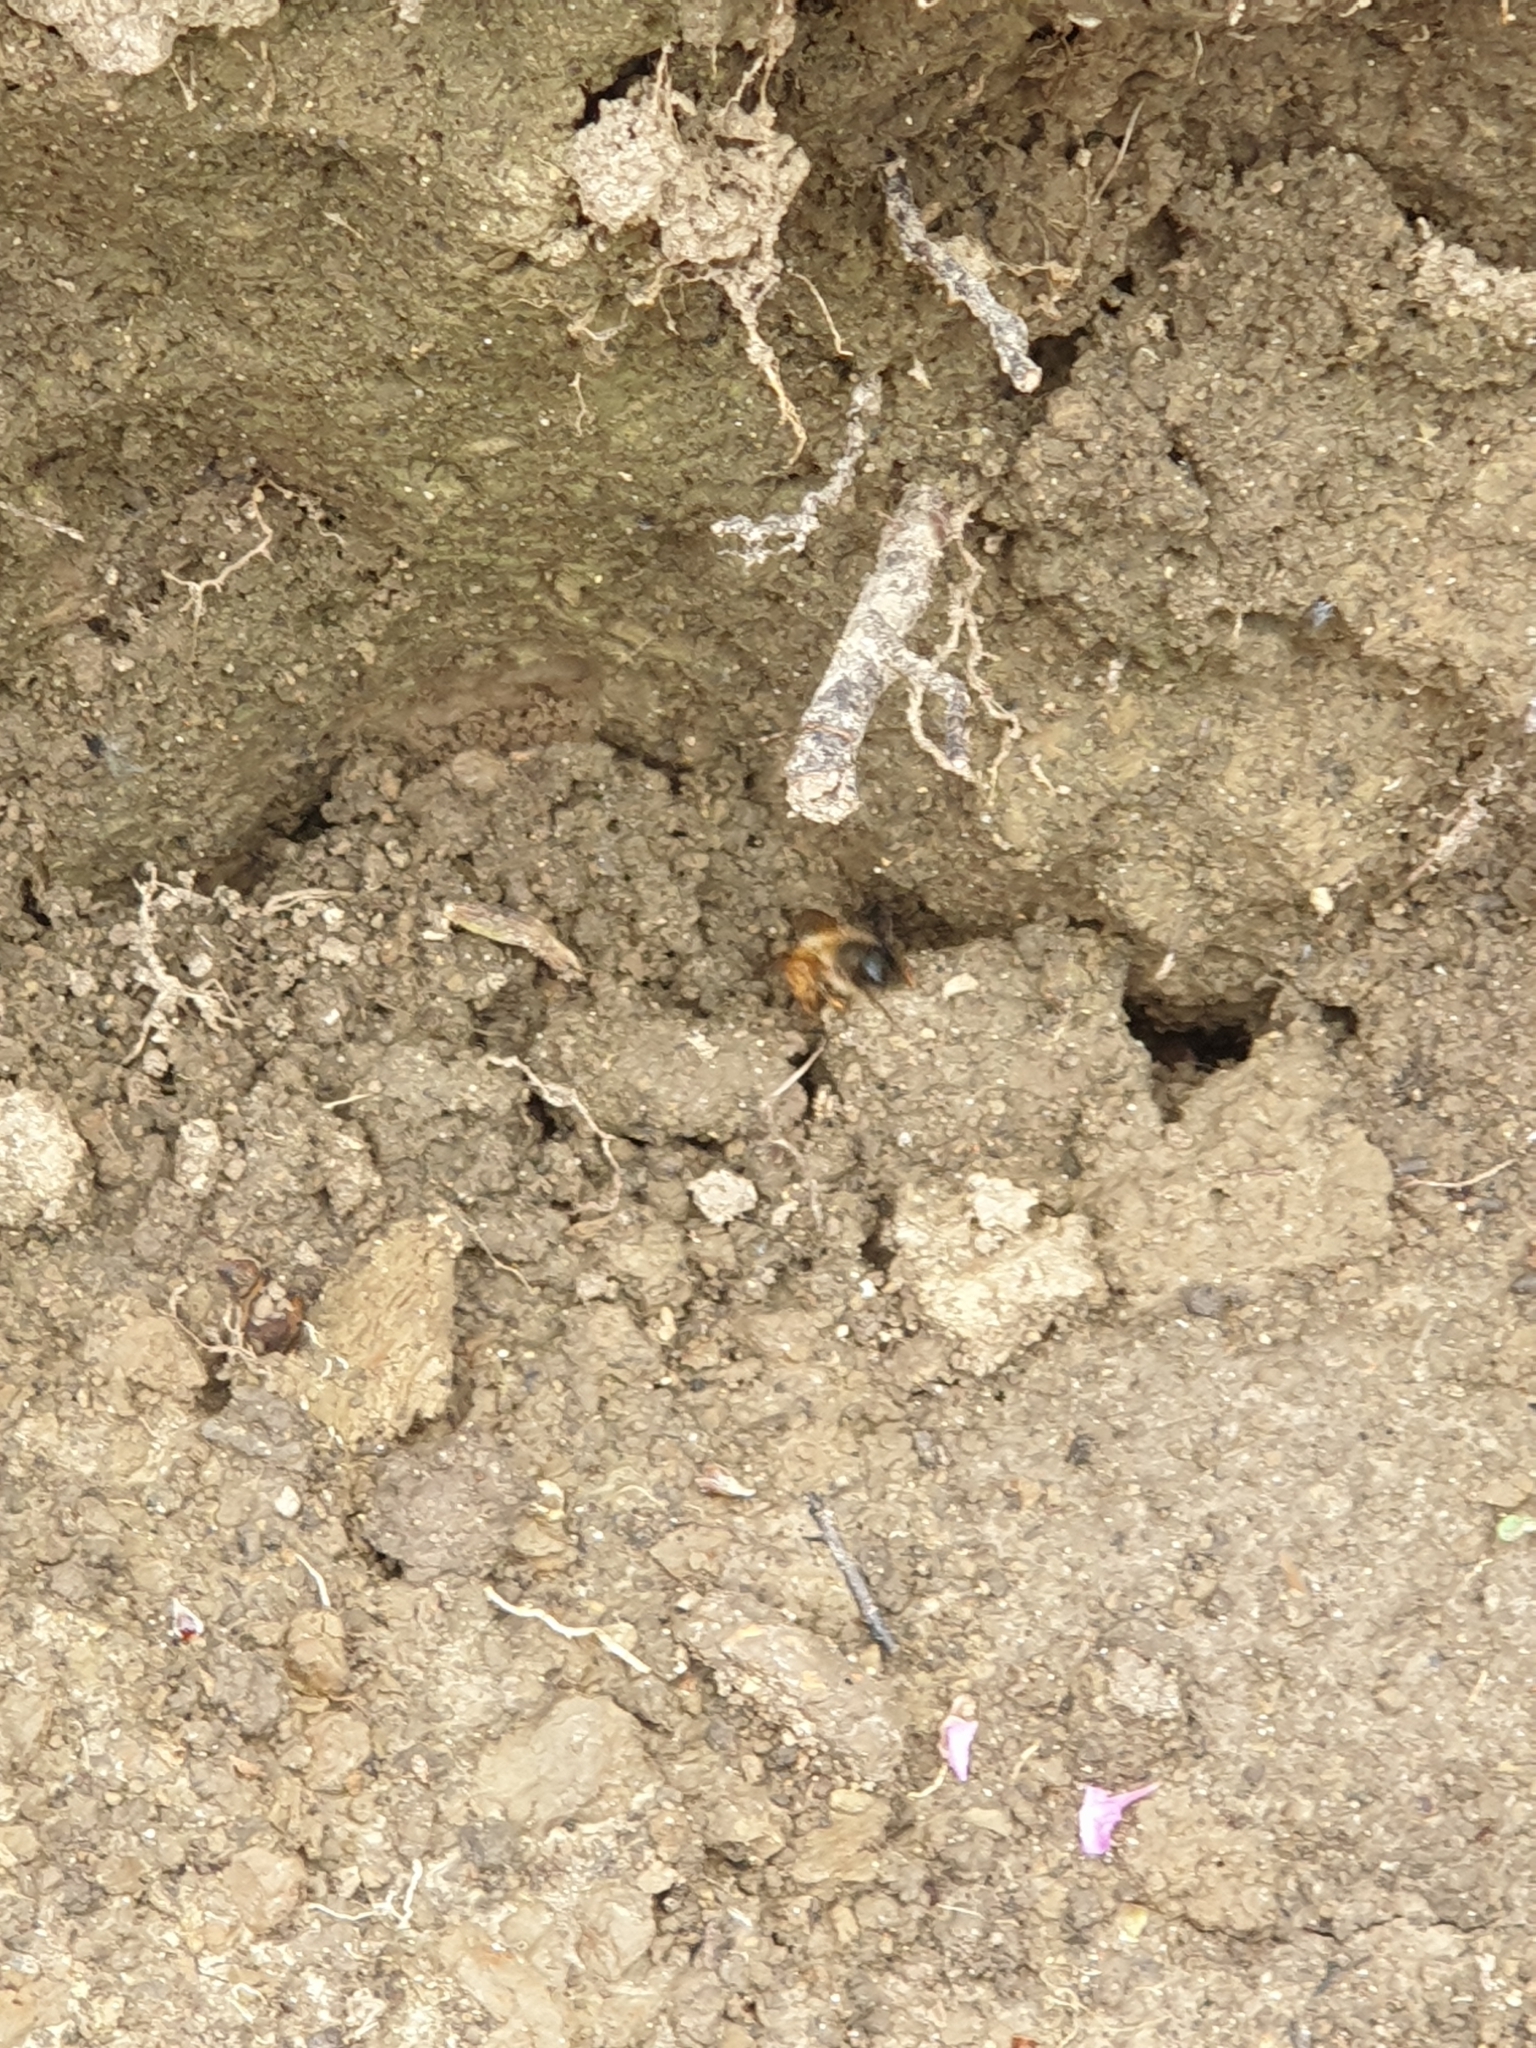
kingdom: Animalia
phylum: Arthropoda
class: Insecta
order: Hymenoptera
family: Megachilidae
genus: Osmia
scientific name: Osmia cornuta
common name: Mason bee
